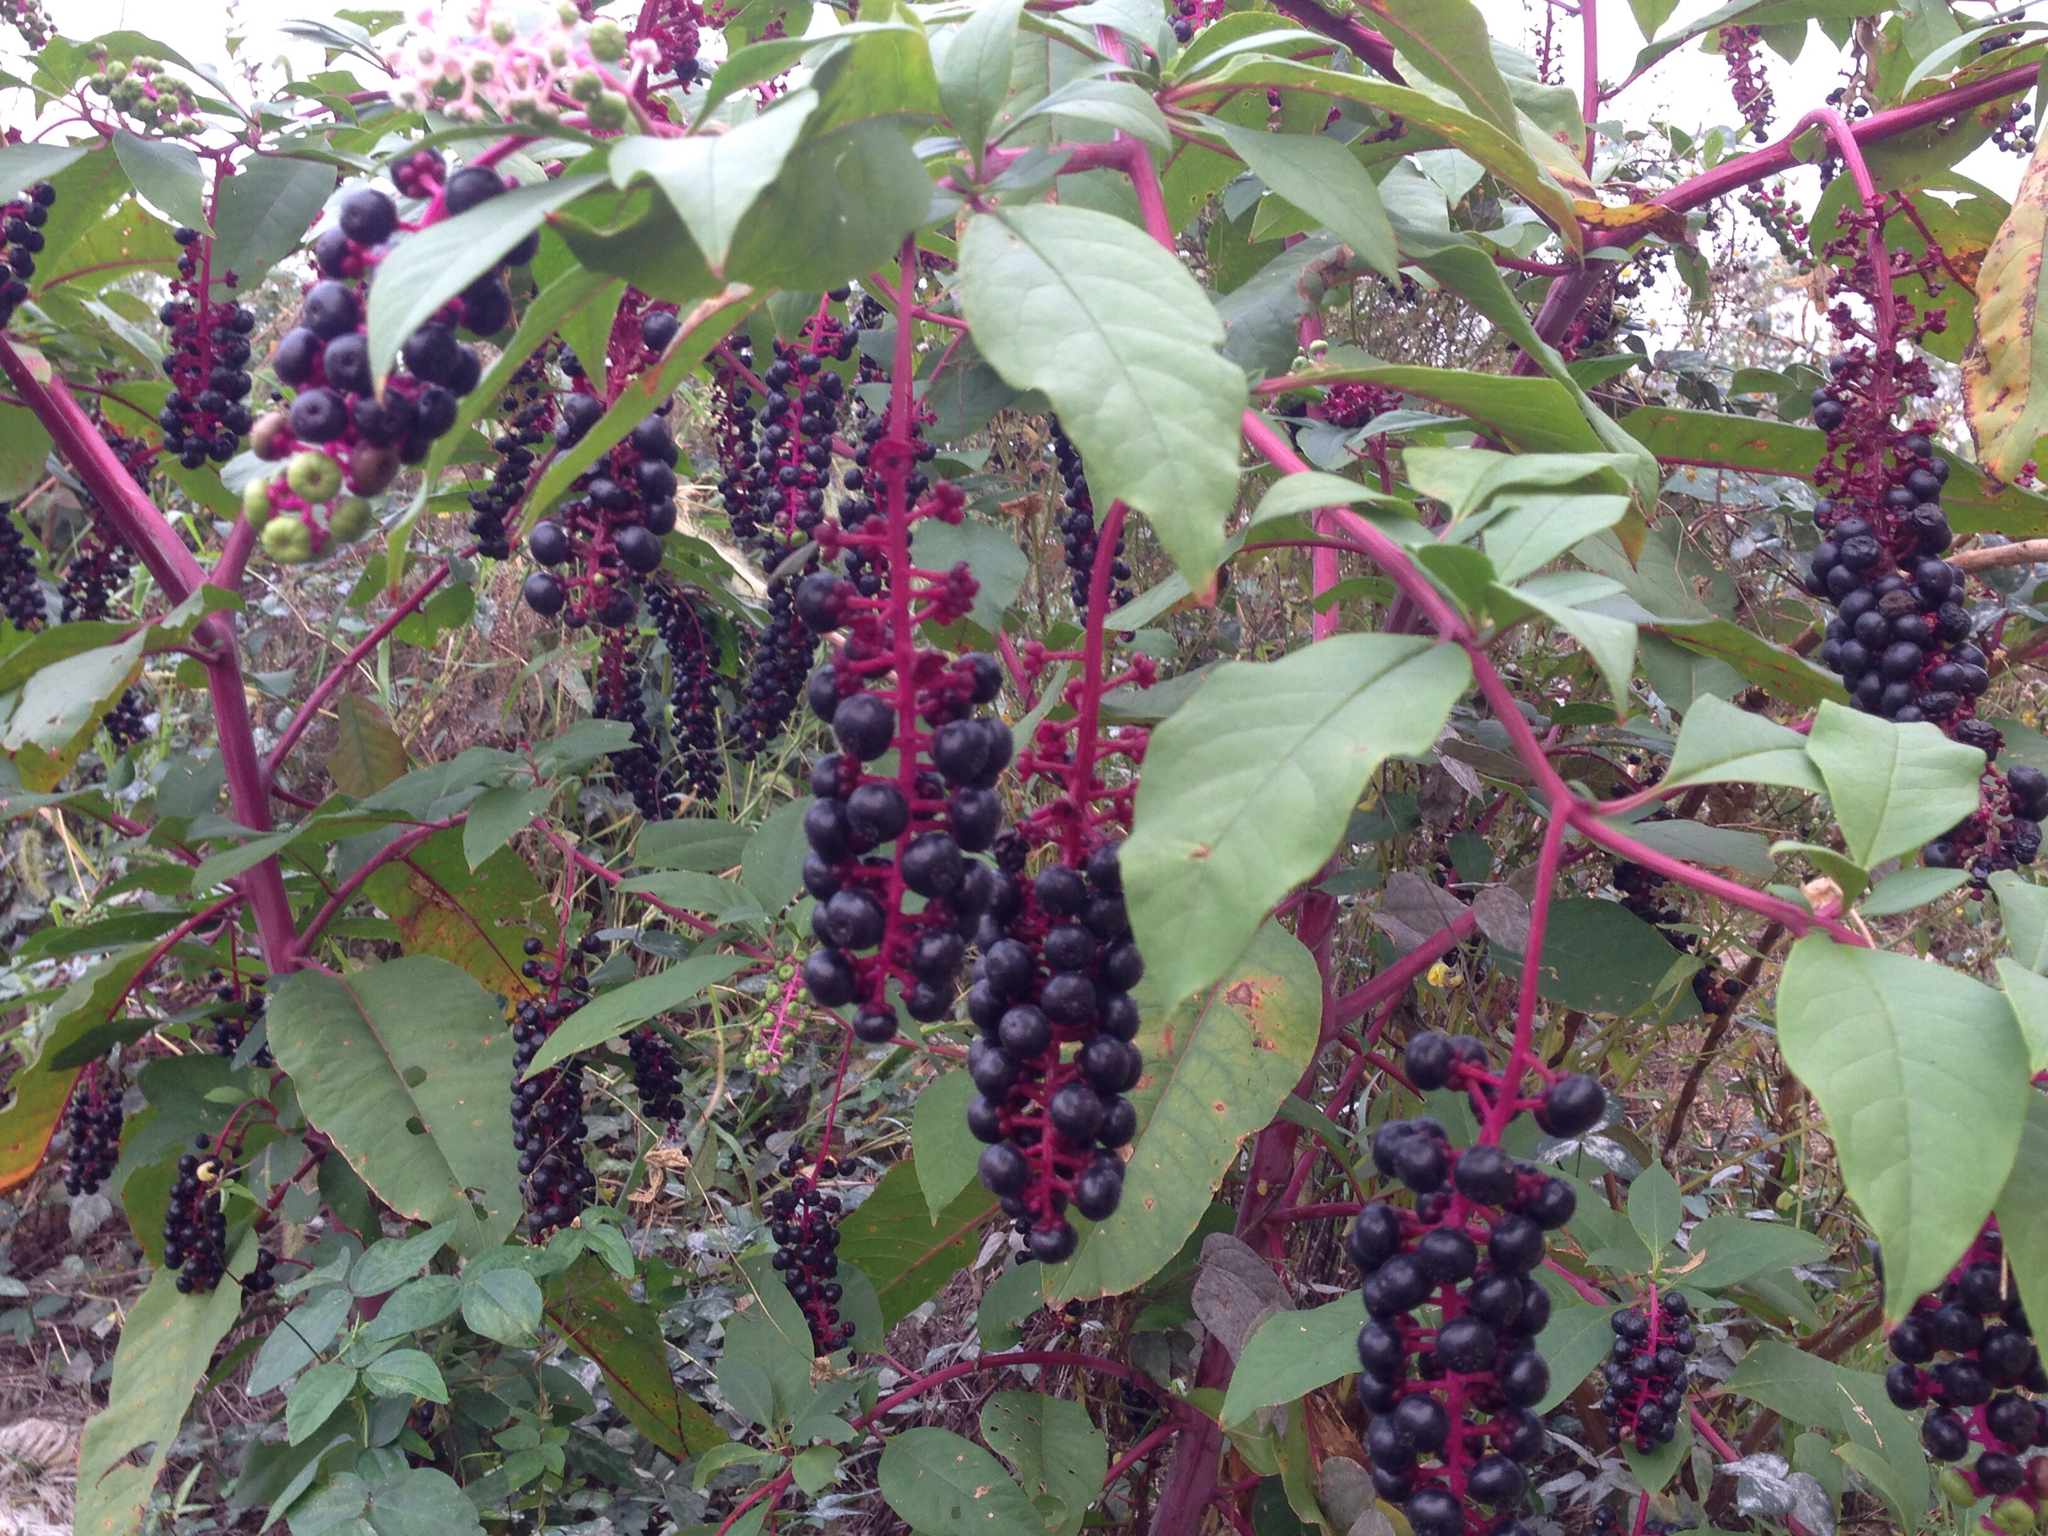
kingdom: Plantae
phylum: Tracheophyta
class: Magnoliopsida
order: Caryophyllales
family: Phytolaccaceae
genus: Phytolacca
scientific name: Phytolacca americana
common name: American pokeweed
